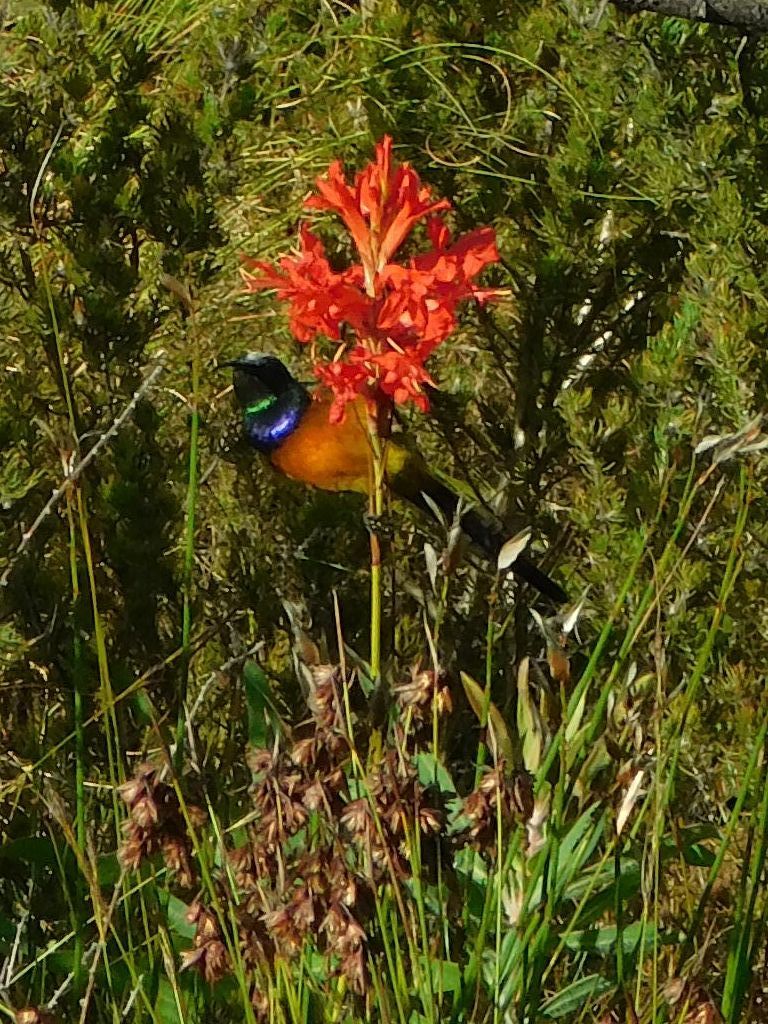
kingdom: Plantae
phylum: Tracheophyta
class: Liliopsida
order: Asparagales
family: Iridaceae
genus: Tritoniopsis
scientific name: Tritoniopsis triticea
